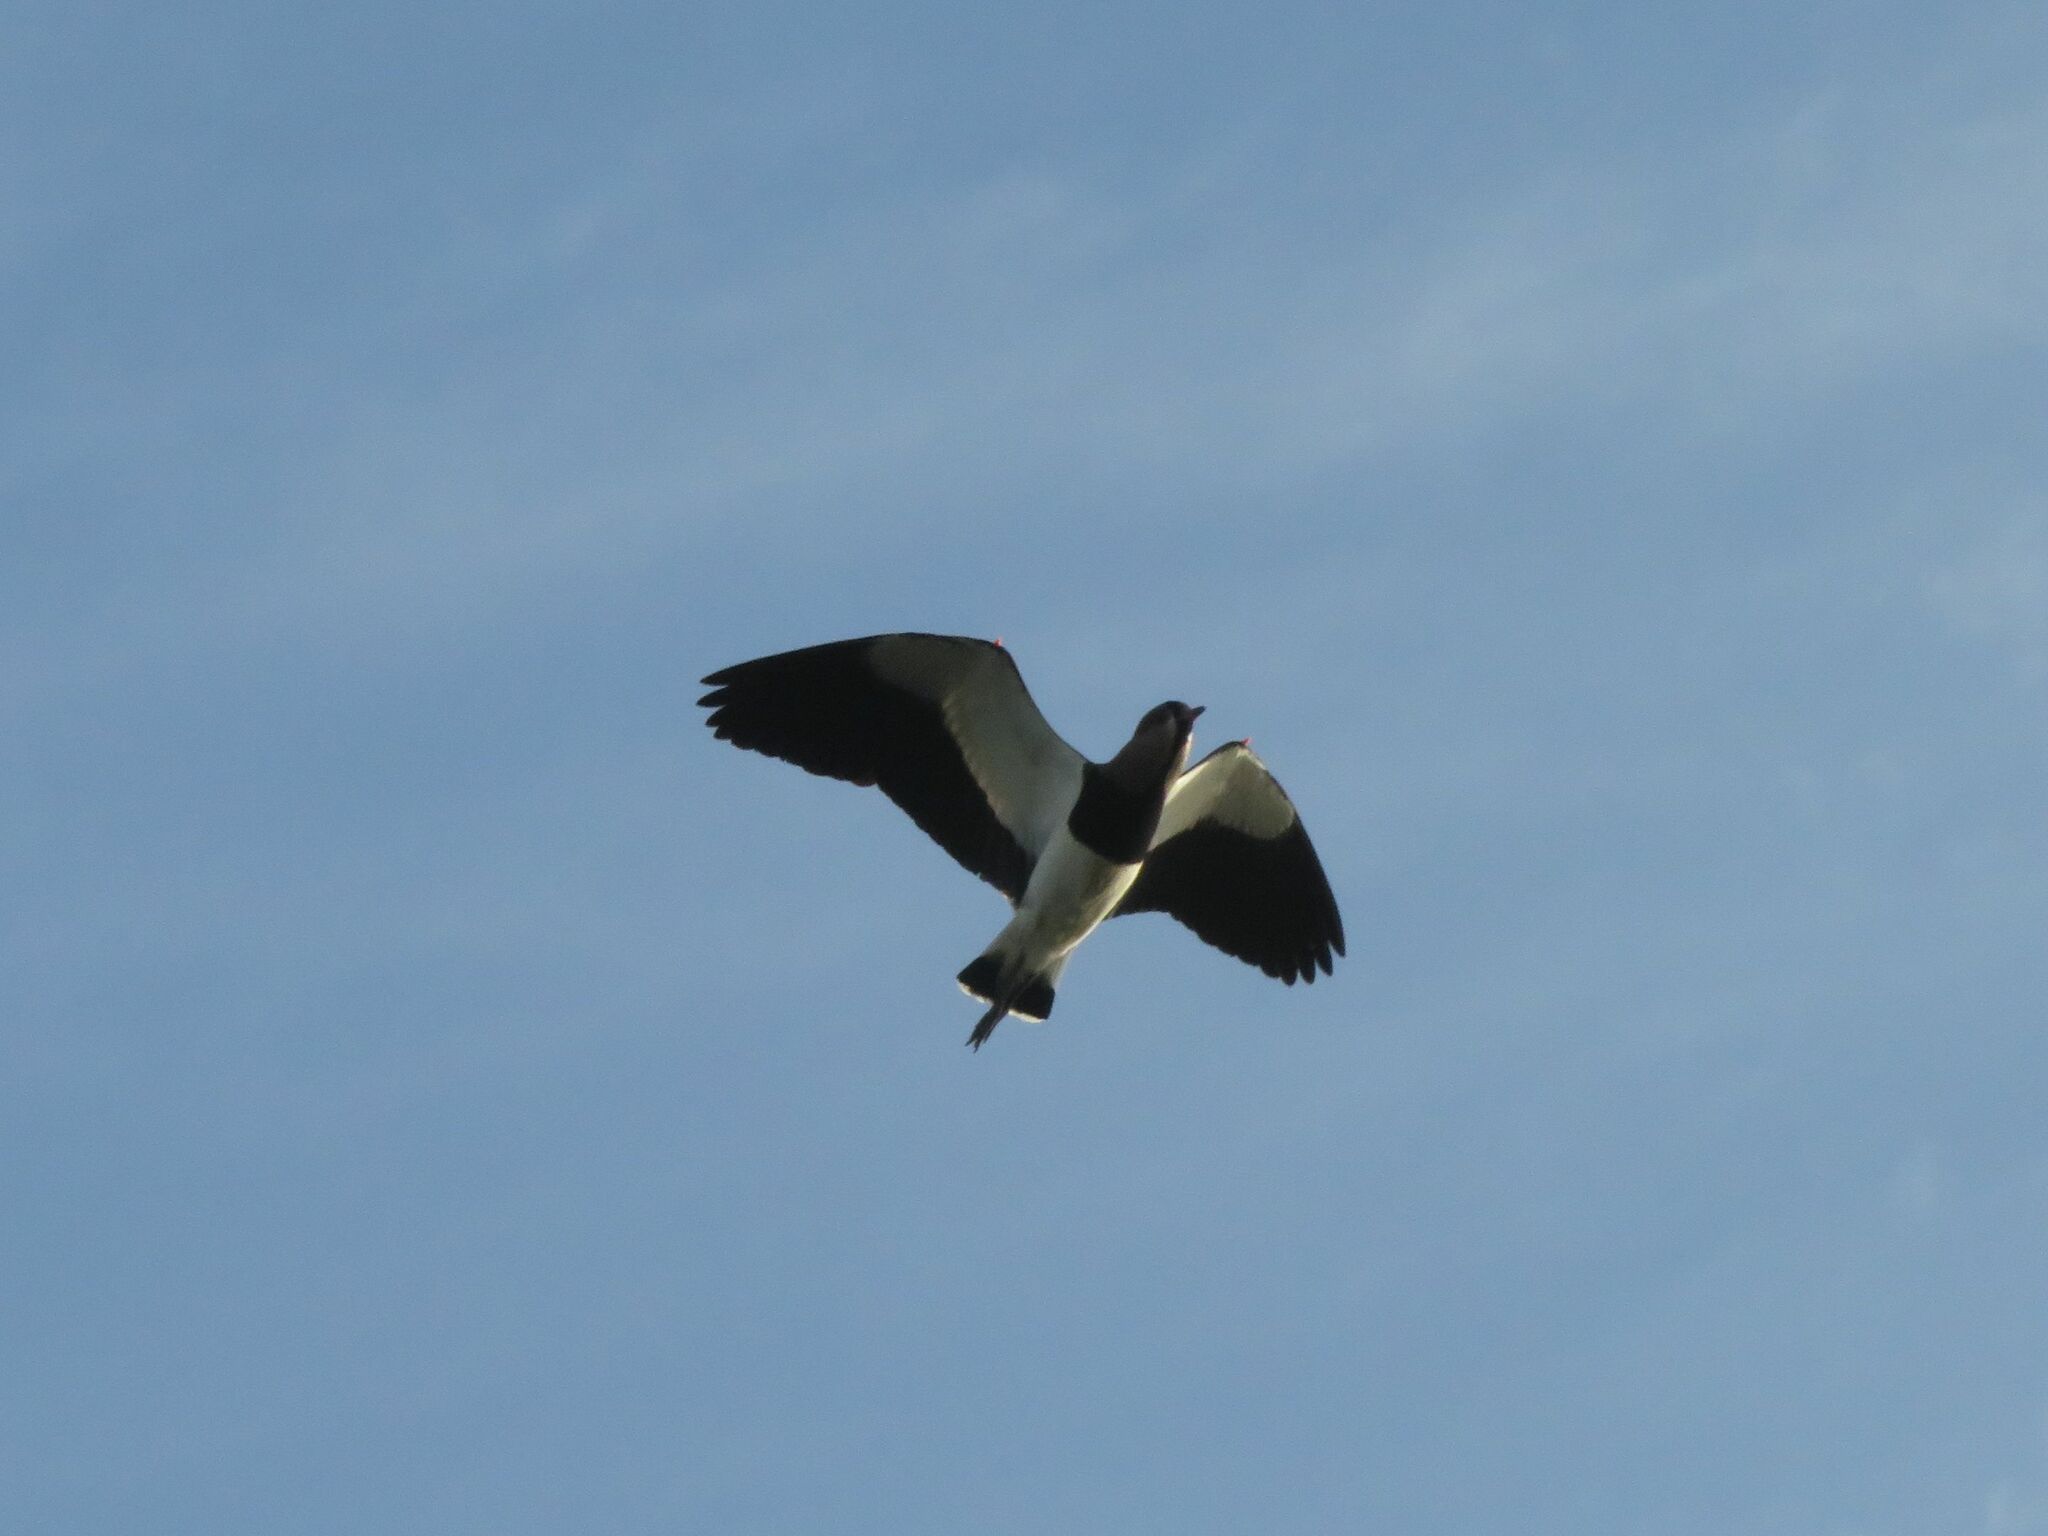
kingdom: Animalia
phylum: Chordata
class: Aves
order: Charadriiformes
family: Charadriidae
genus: Vanellus
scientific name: Vanellus chilensis
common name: Southern lapwing
